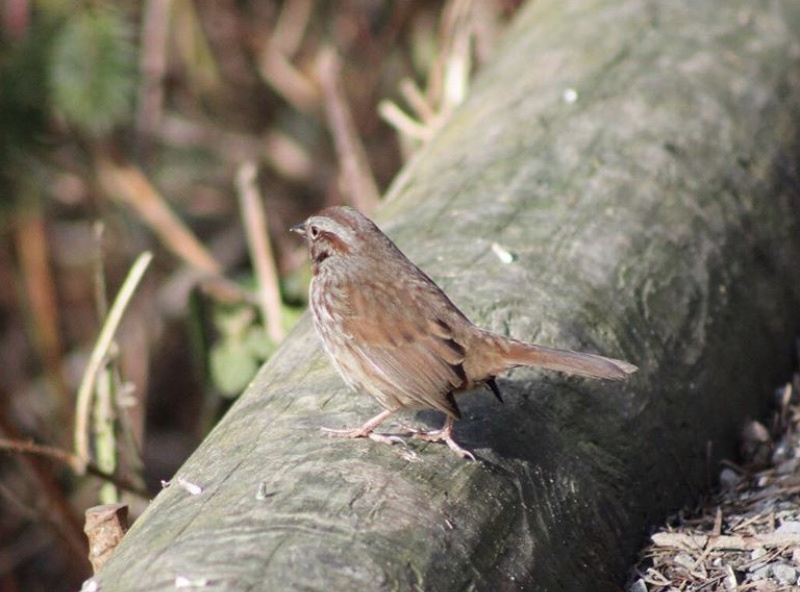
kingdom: Animalia
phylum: Chordata
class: Aves
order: Passeriformes
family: Passerellidae
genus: Melospiza
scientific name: Melospiza melodia
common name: Song sparrow
